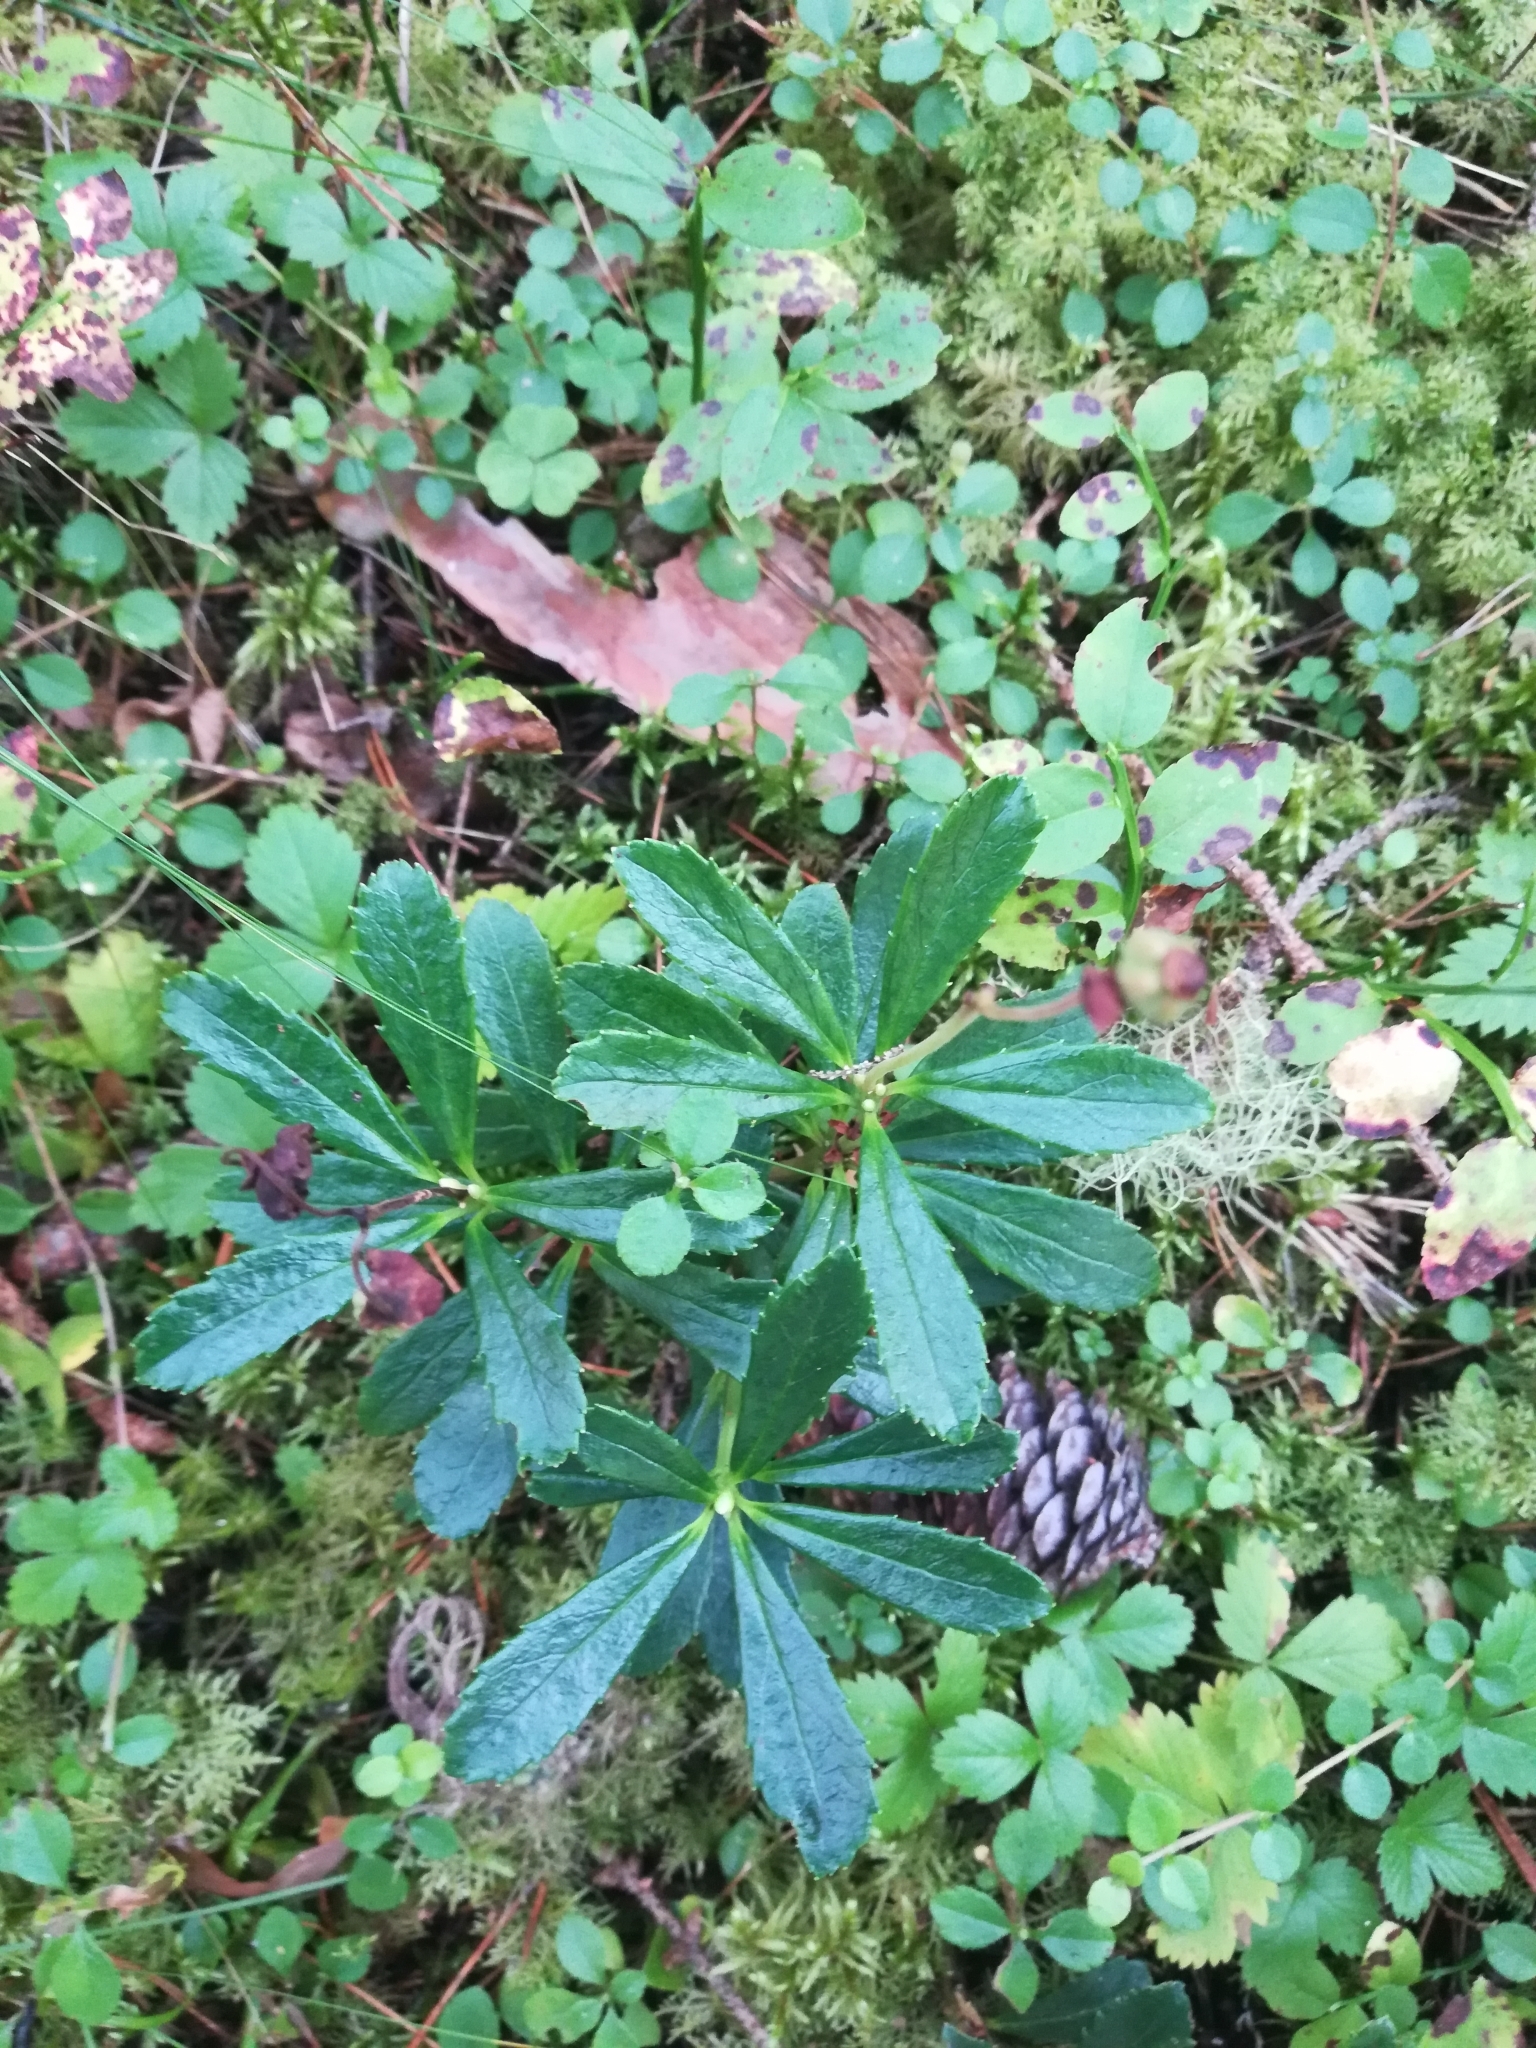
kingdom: Plantae
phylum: Tracheophyta
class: Magnoliopsida
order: Ericales
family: Ericaceae
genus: Chimaphila
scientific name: Chimaphila umbellata
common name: Pipsissewa
